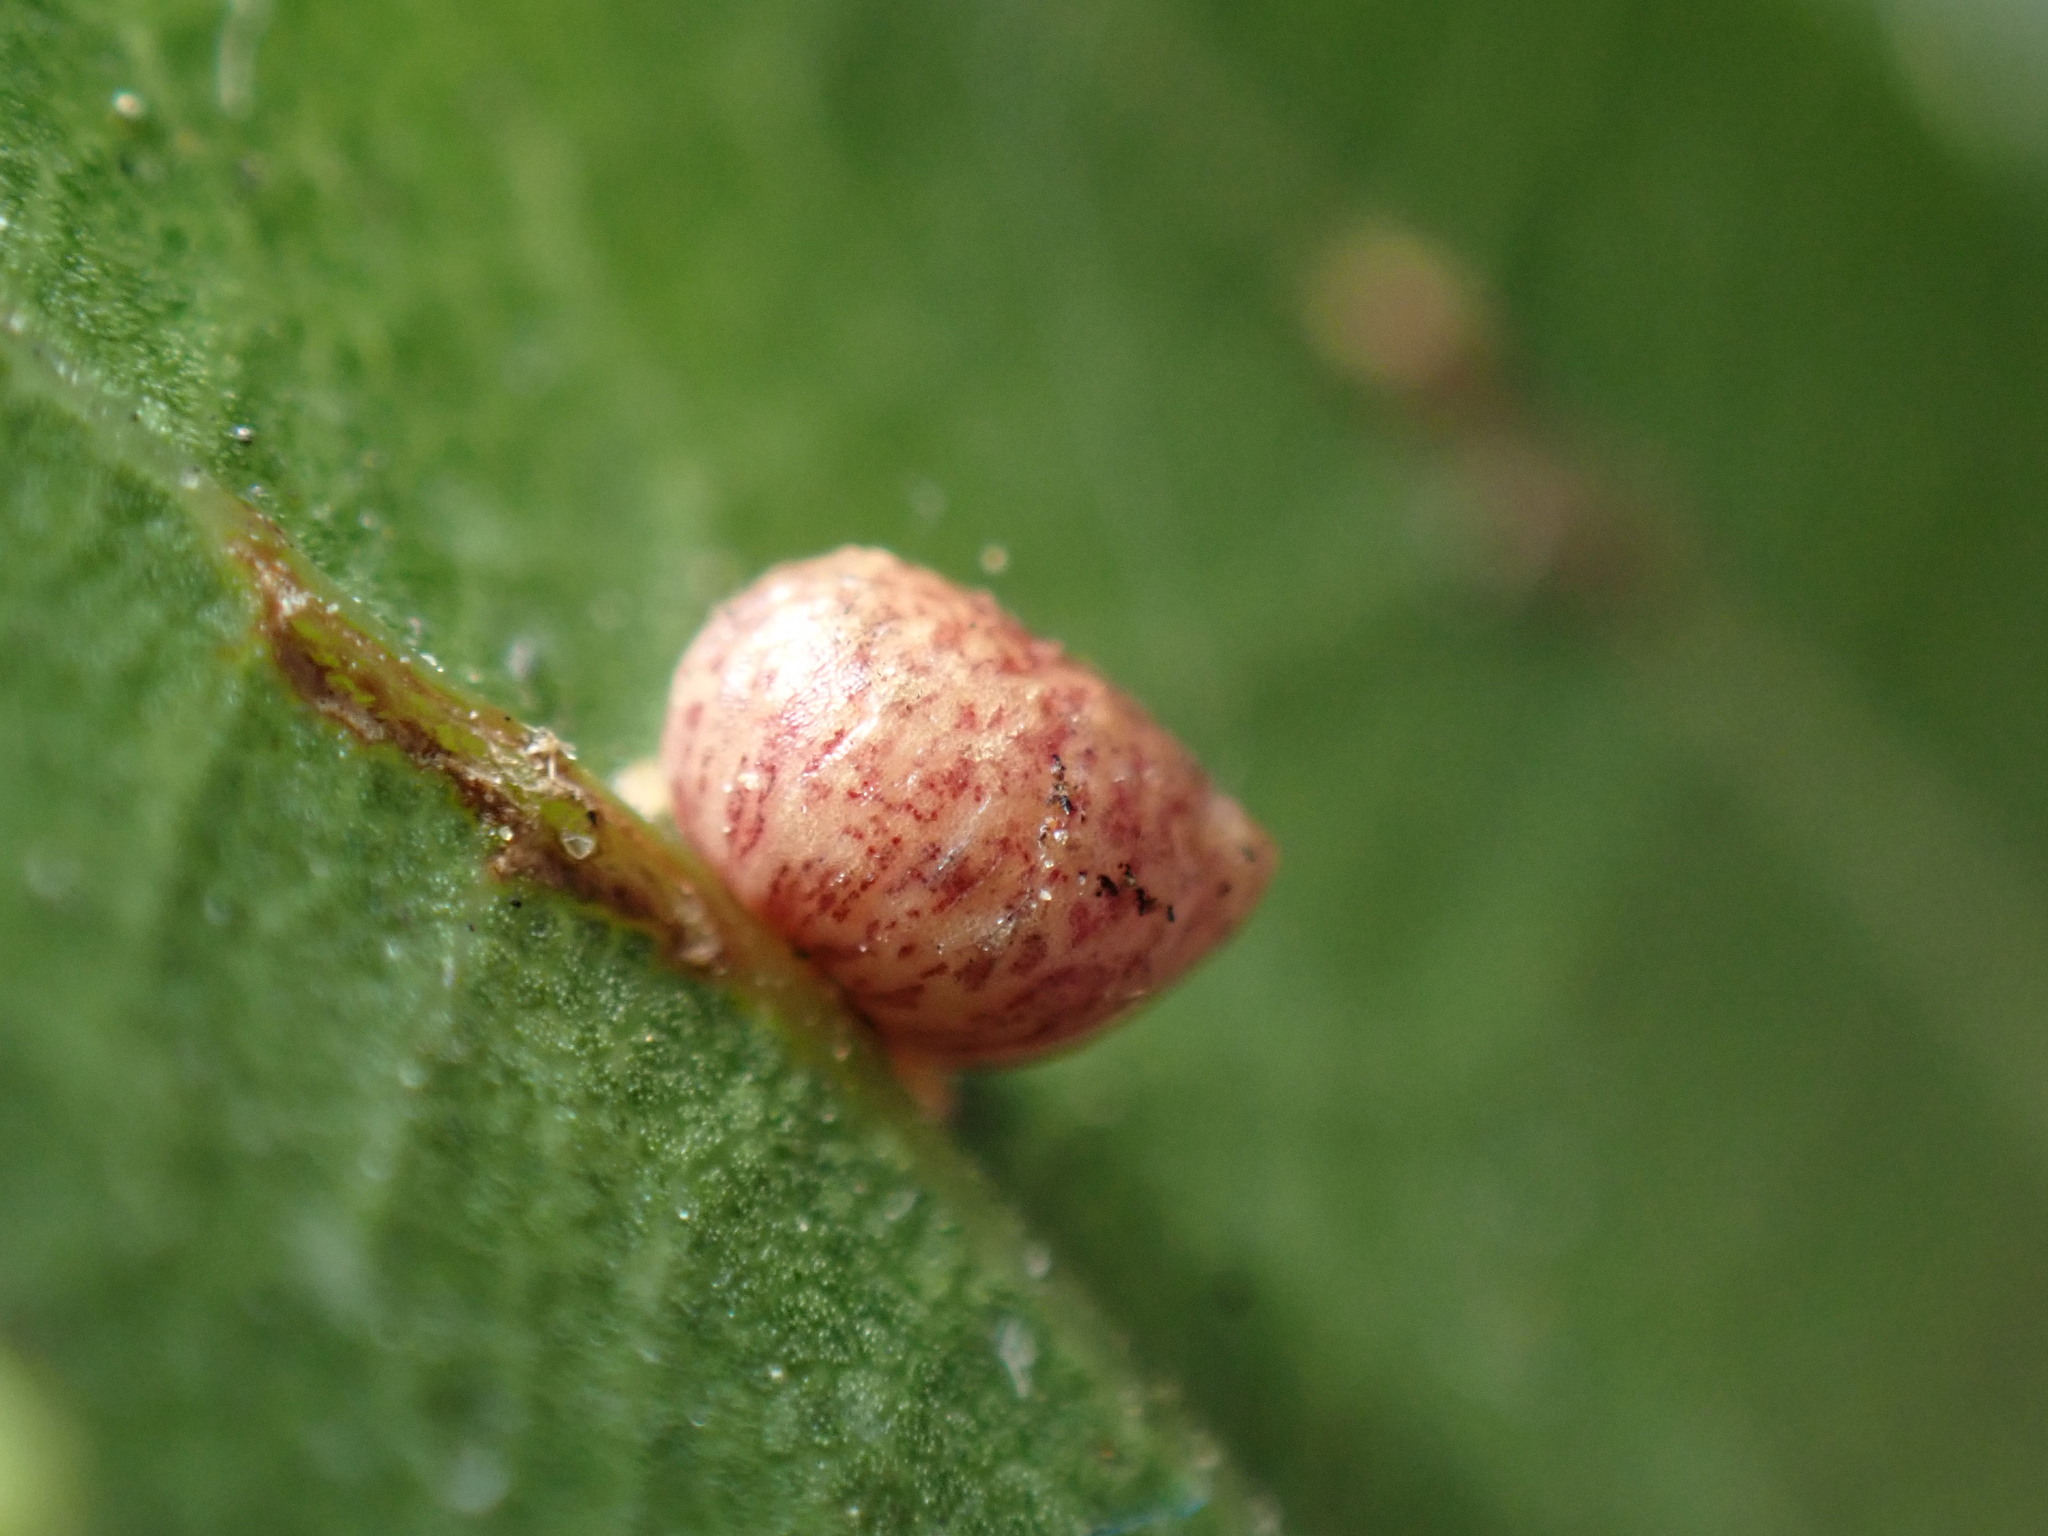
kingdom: Animalia
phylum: Arthropoda
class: Insecta
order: Hymenoptera
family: Cynipidae
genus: Dryocosmus
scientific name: Dryocosmus
